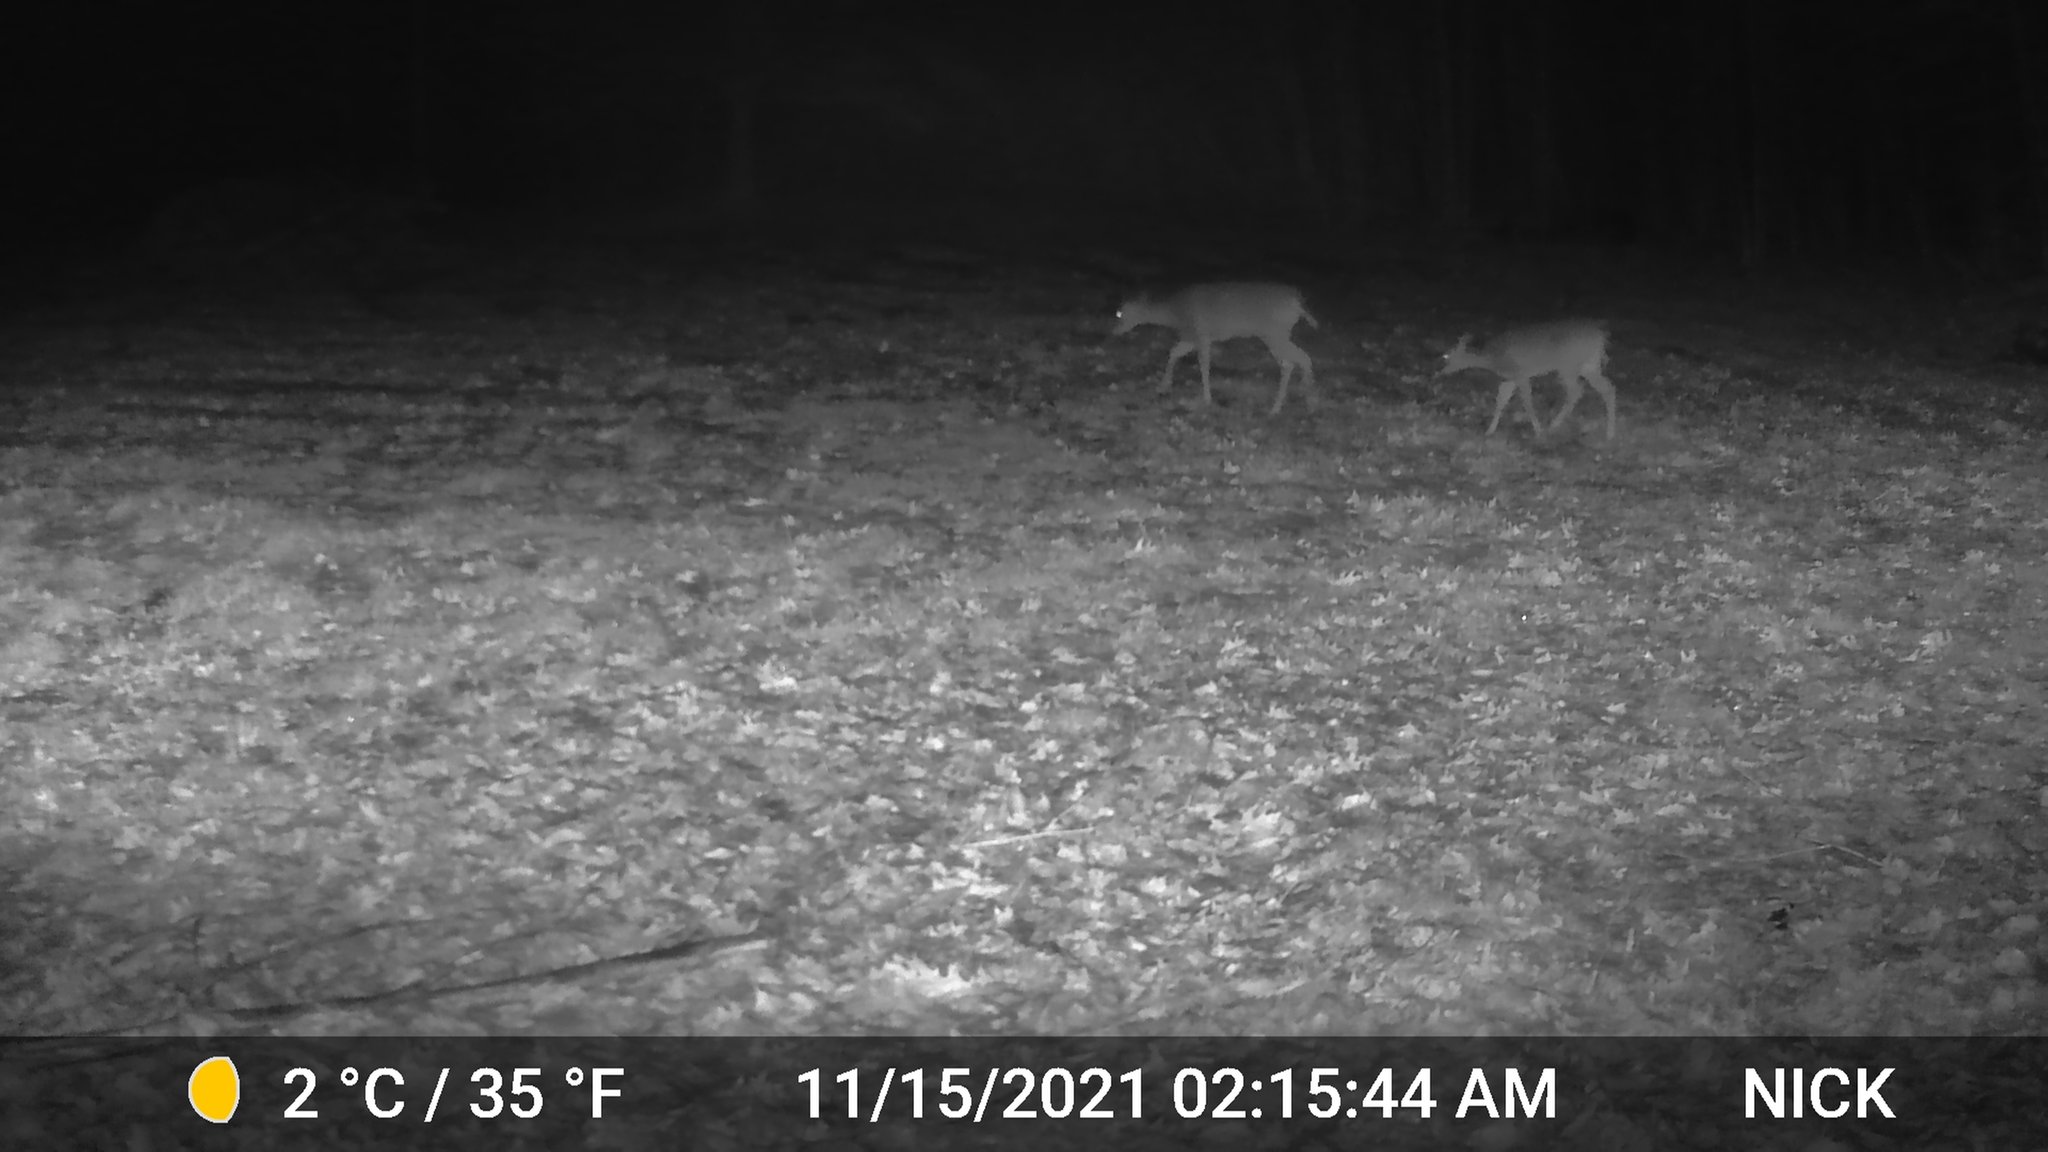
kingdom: Animalia
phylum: Chordata
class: Mammalia
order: Artiodactyla
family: Cervidae
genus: Odocoileus
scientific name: Odocoileus virginianus
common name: White-tailed deer
